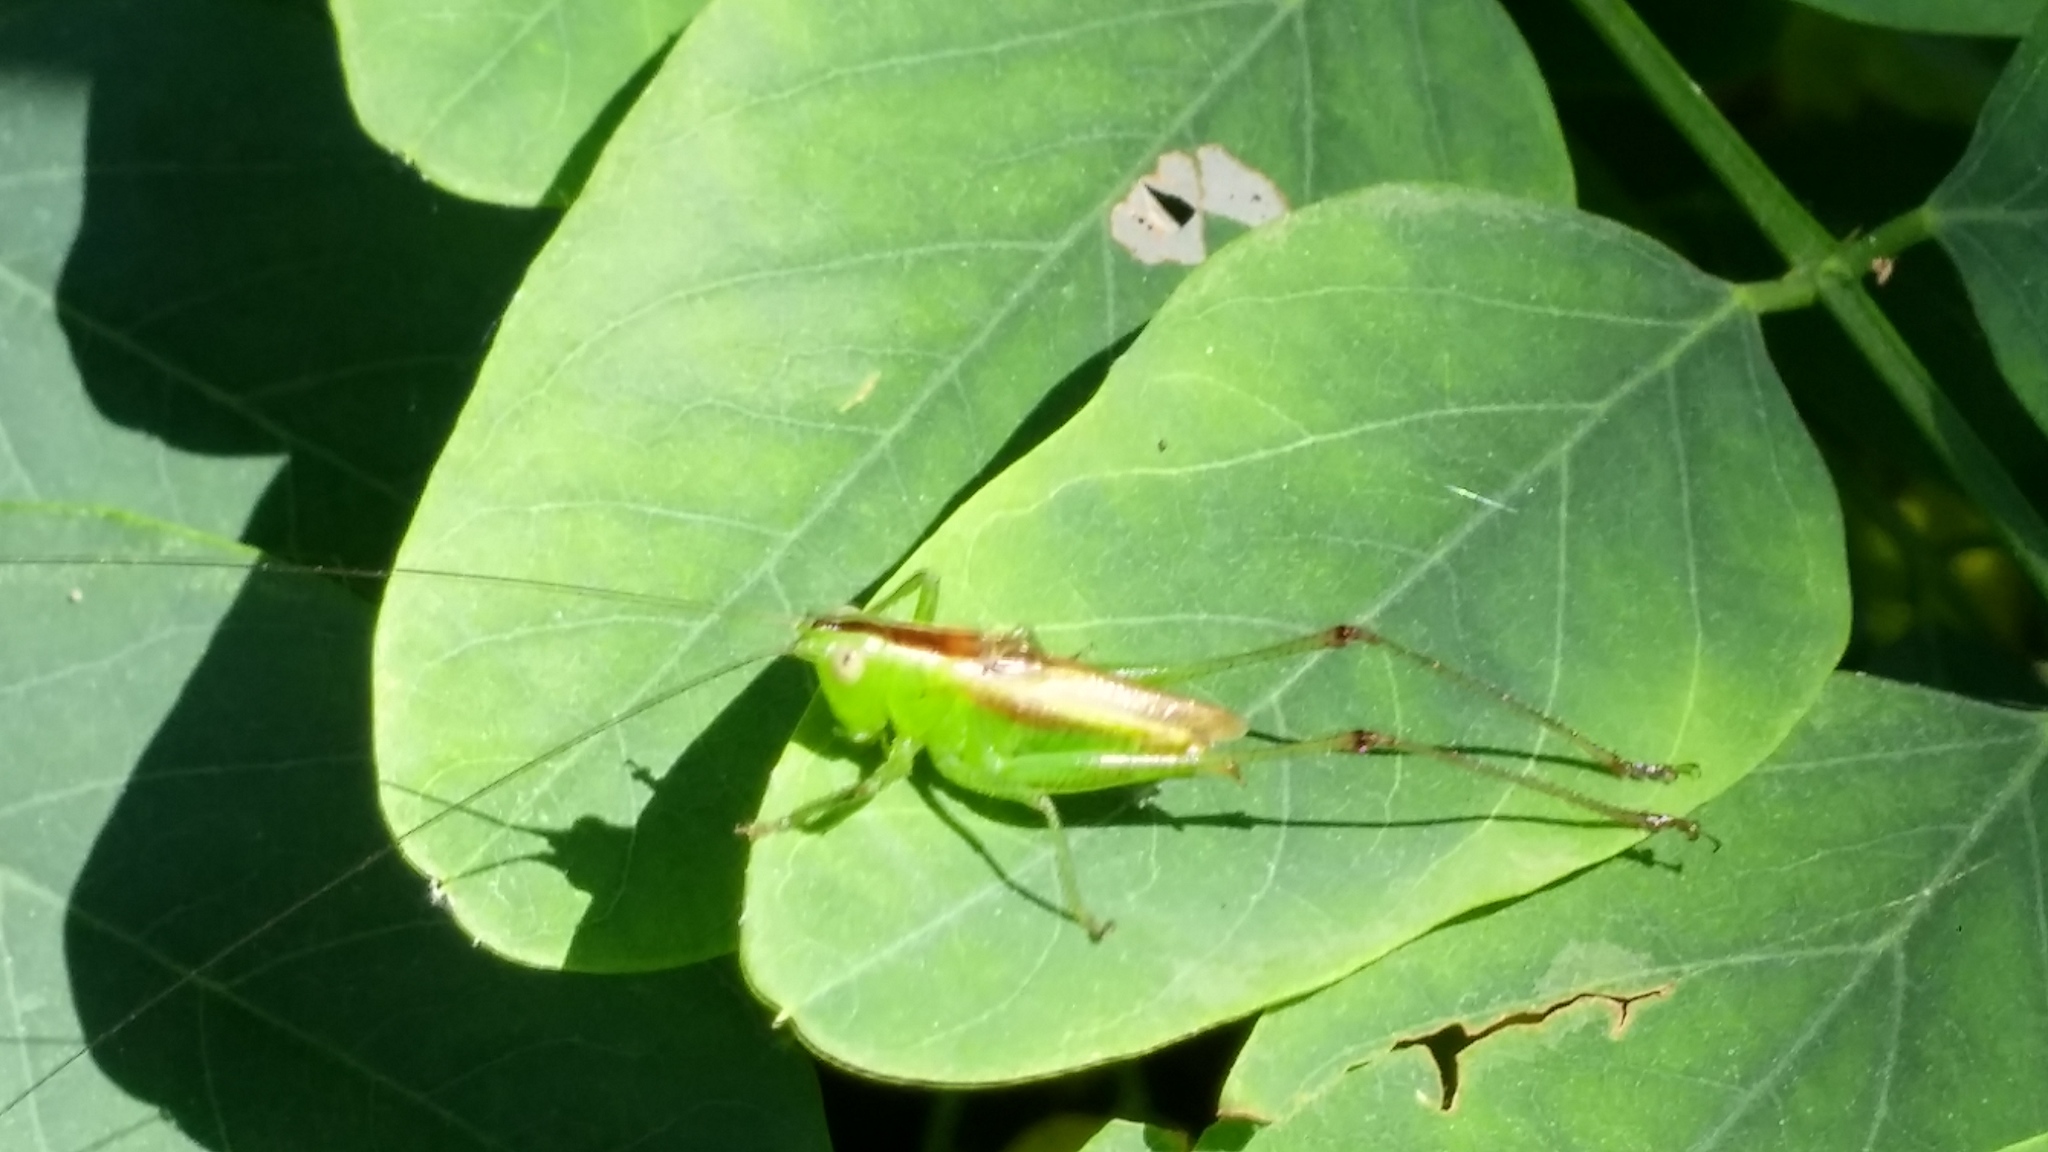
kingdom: Animalia
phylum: Arthropoda
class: Insecta
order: Orthoptera
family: Tettigoniidae
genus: Conocephalus
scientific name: Conocephalus brevipennis
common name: Short-winged meadow katydid
